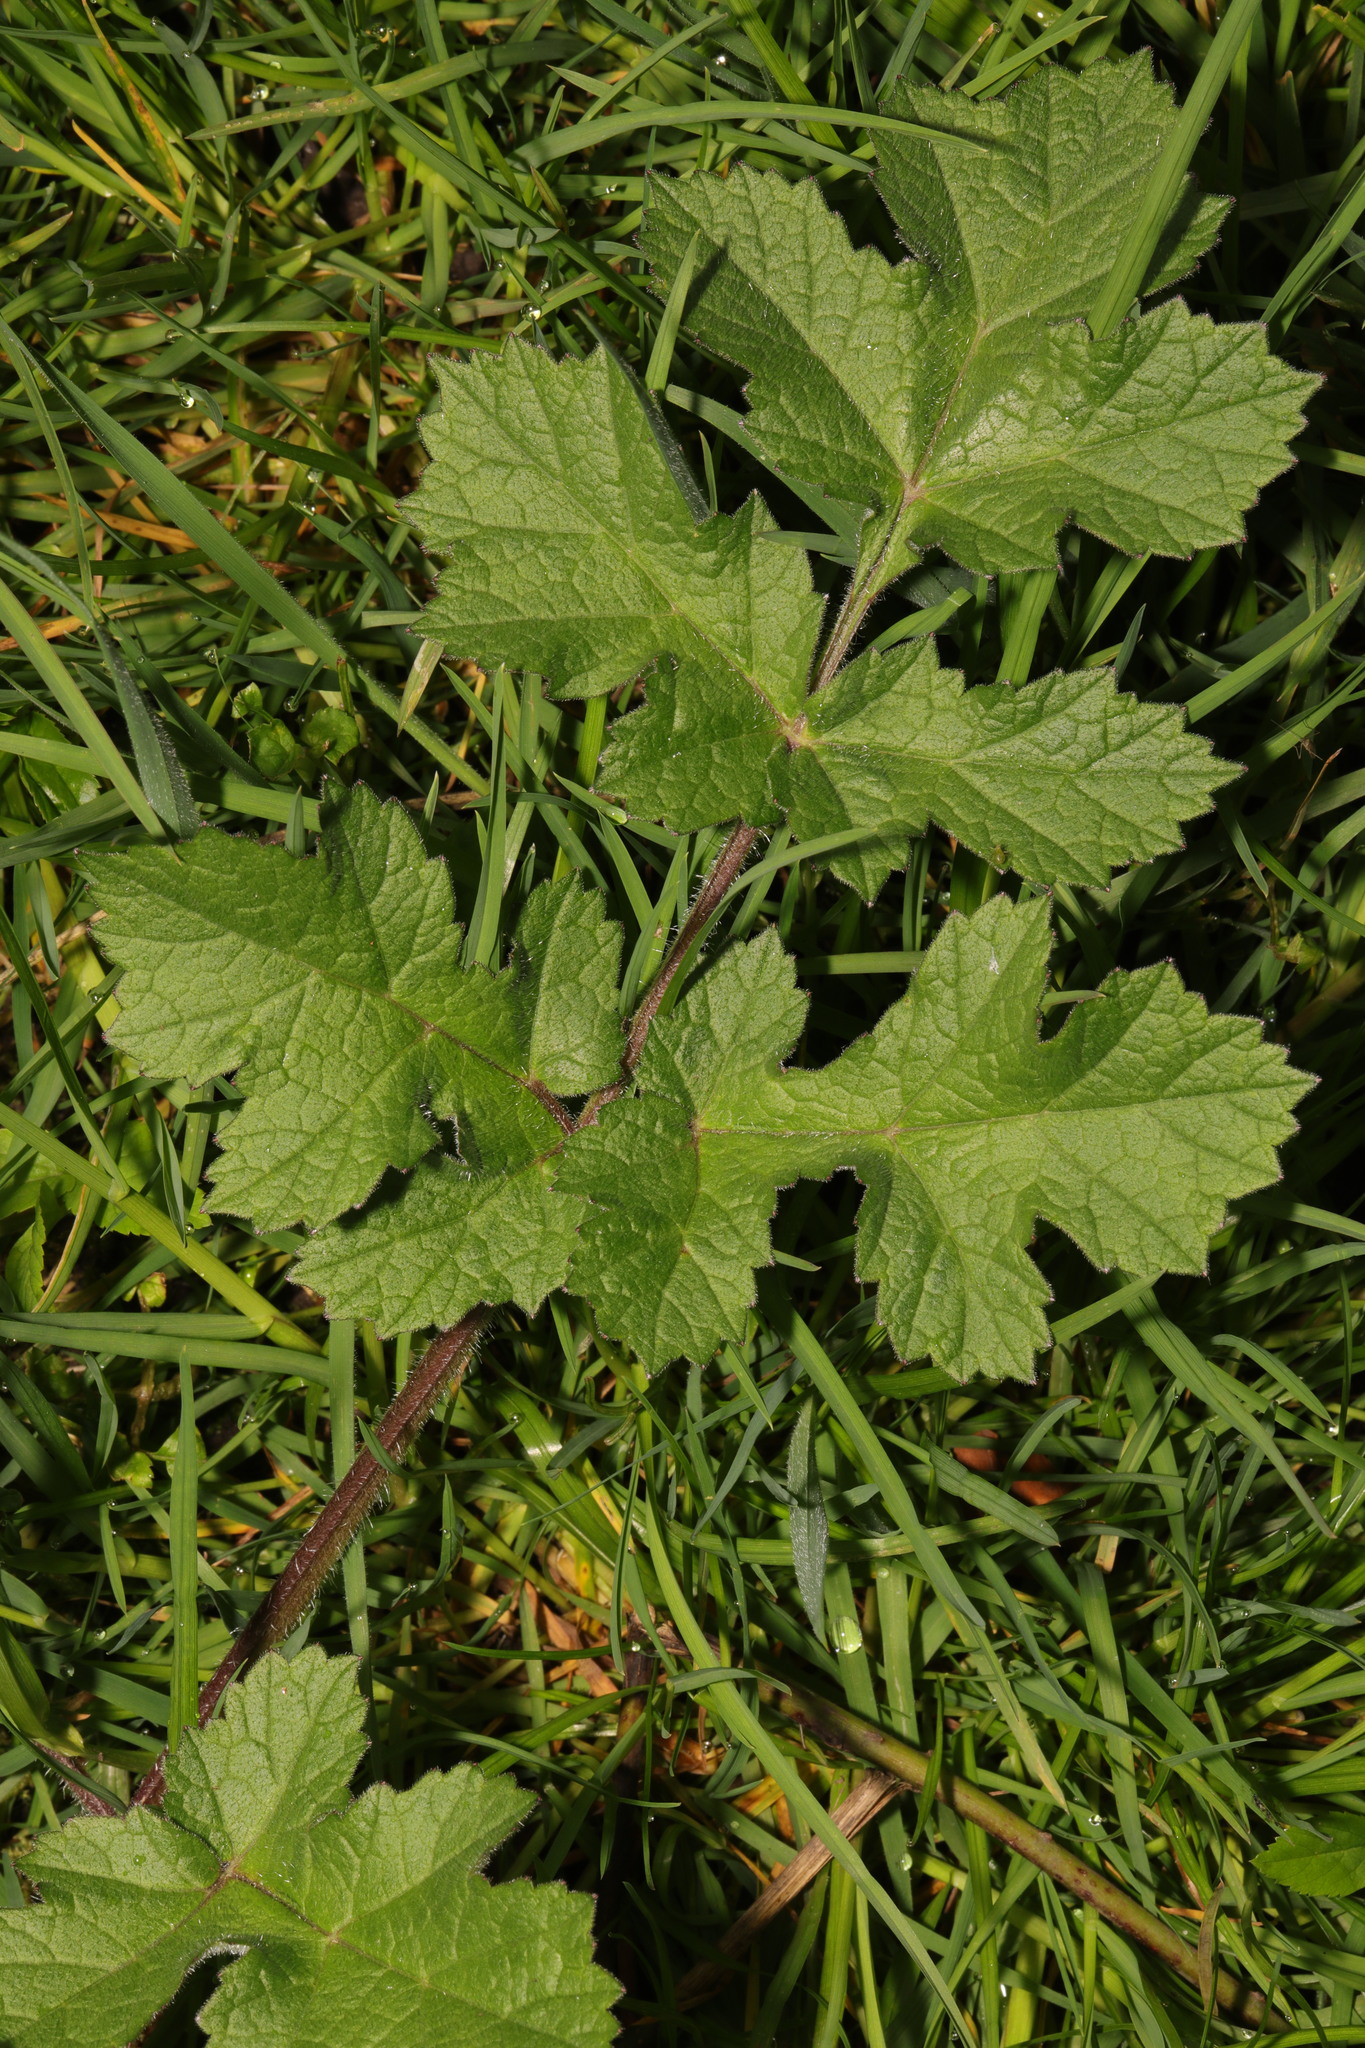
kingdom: Plantae
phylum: Tracheophyta
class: Magnoliopsida
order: Apiales
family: Apiaceae
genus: Heracleum
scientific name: Heracleum sphondylium
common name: Hogweed
